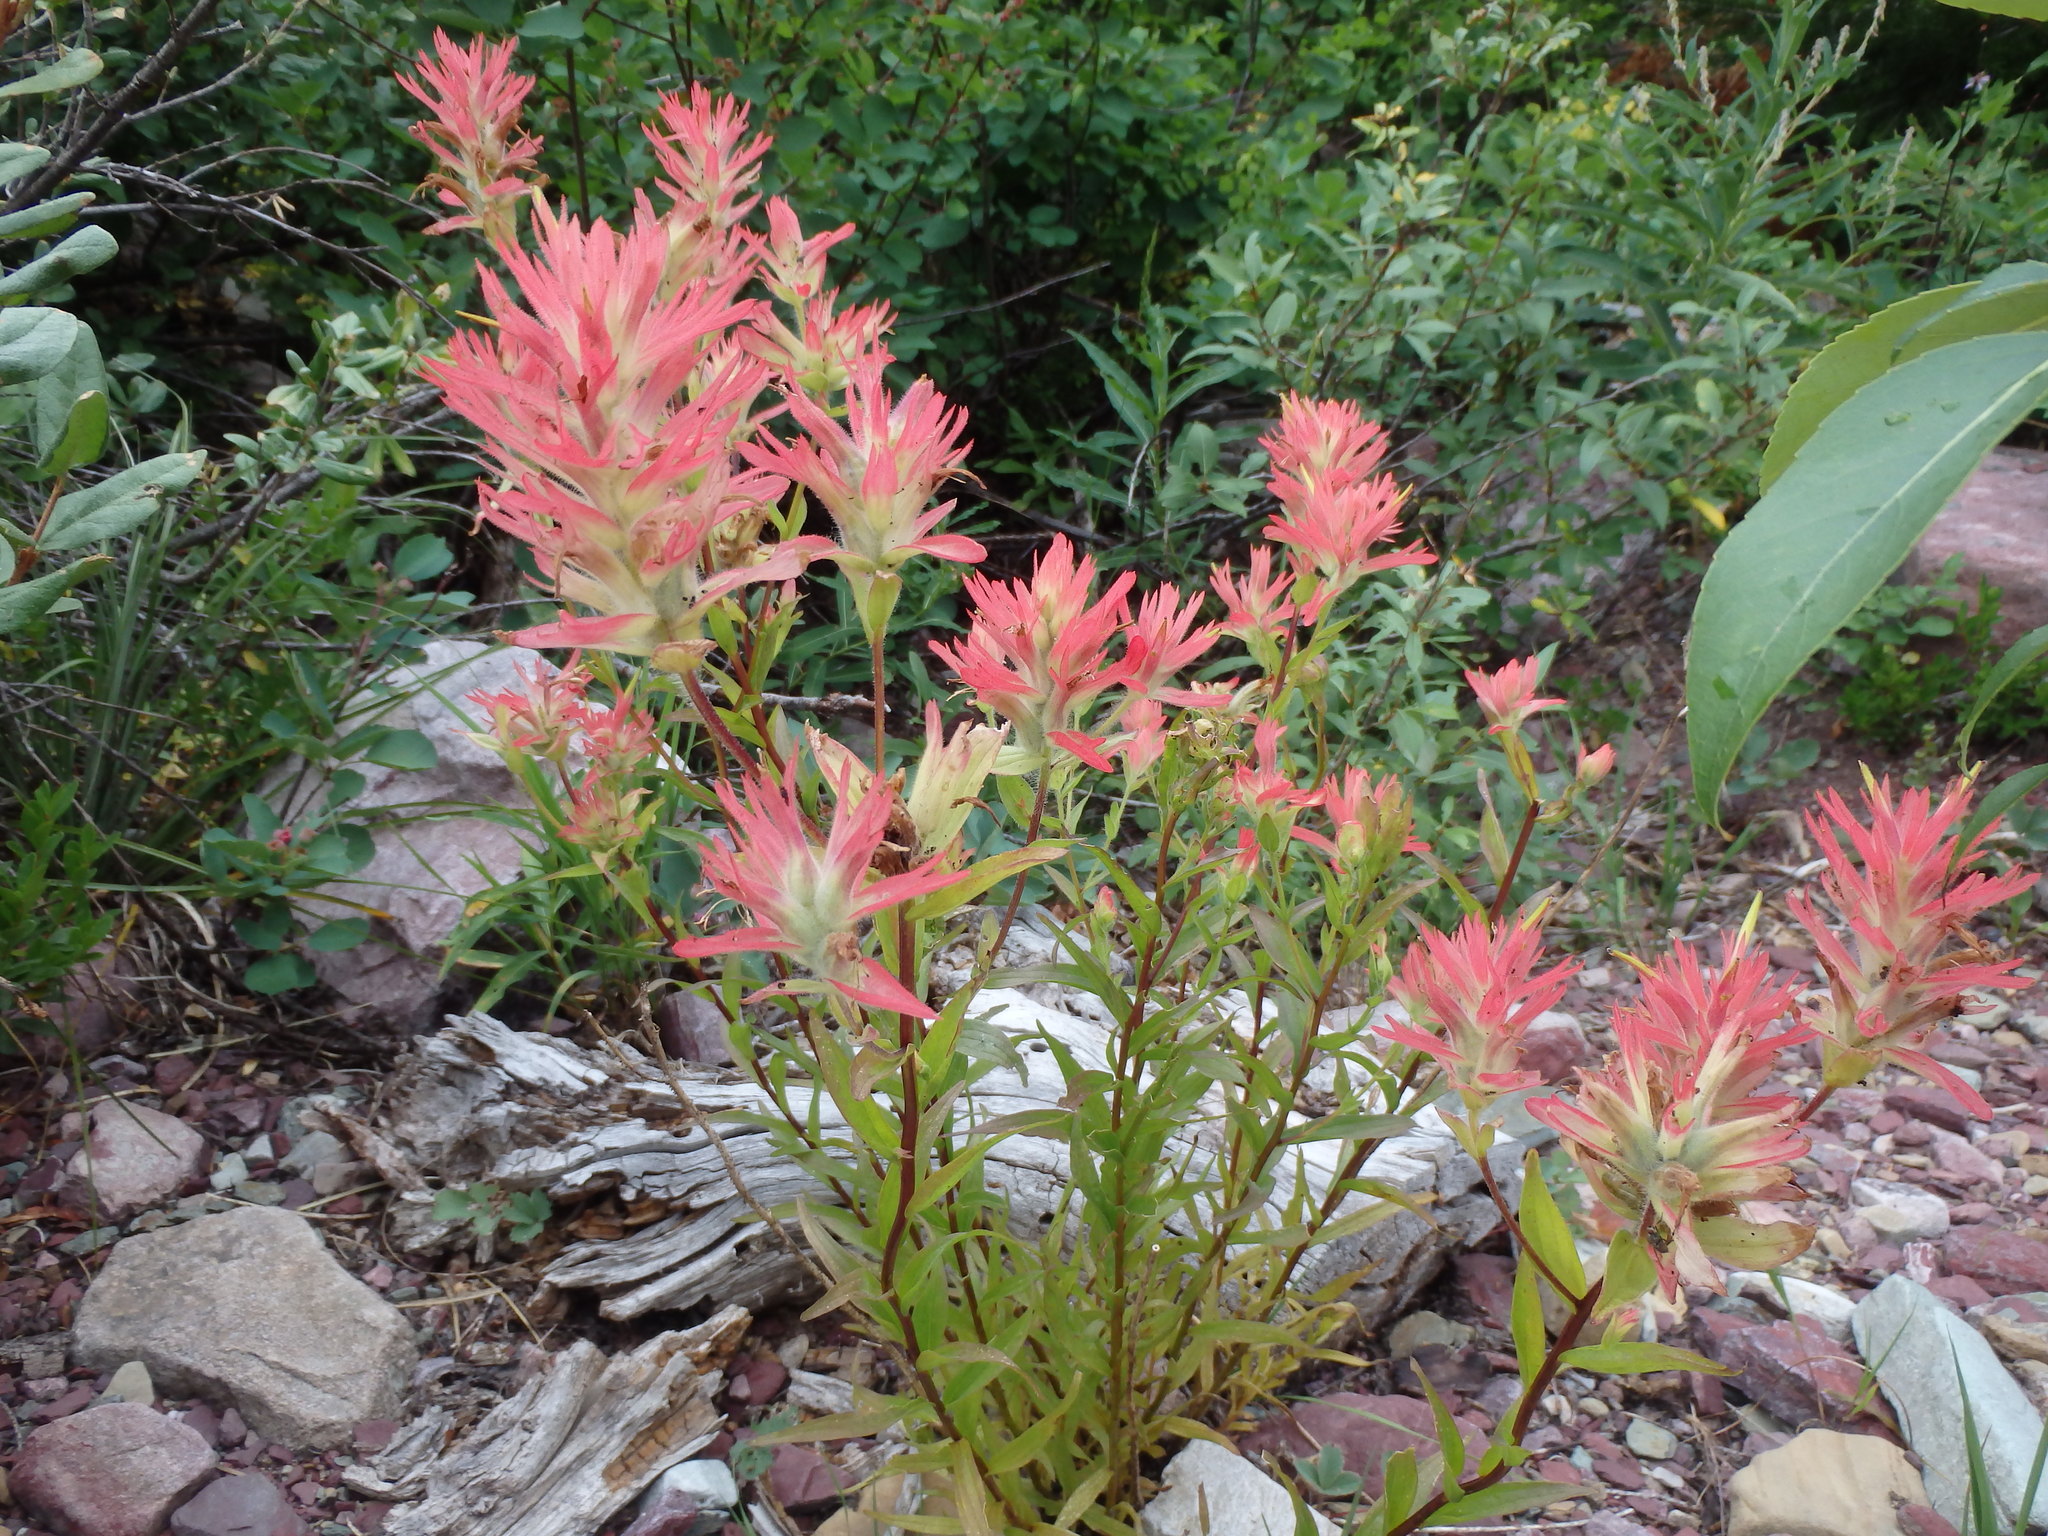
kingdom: Plantae
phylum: Tracheophyta
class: Magnoliopsida
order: Lamiales
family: Orobanchaceae
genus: Castilleja
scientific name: Castilleja miniata
